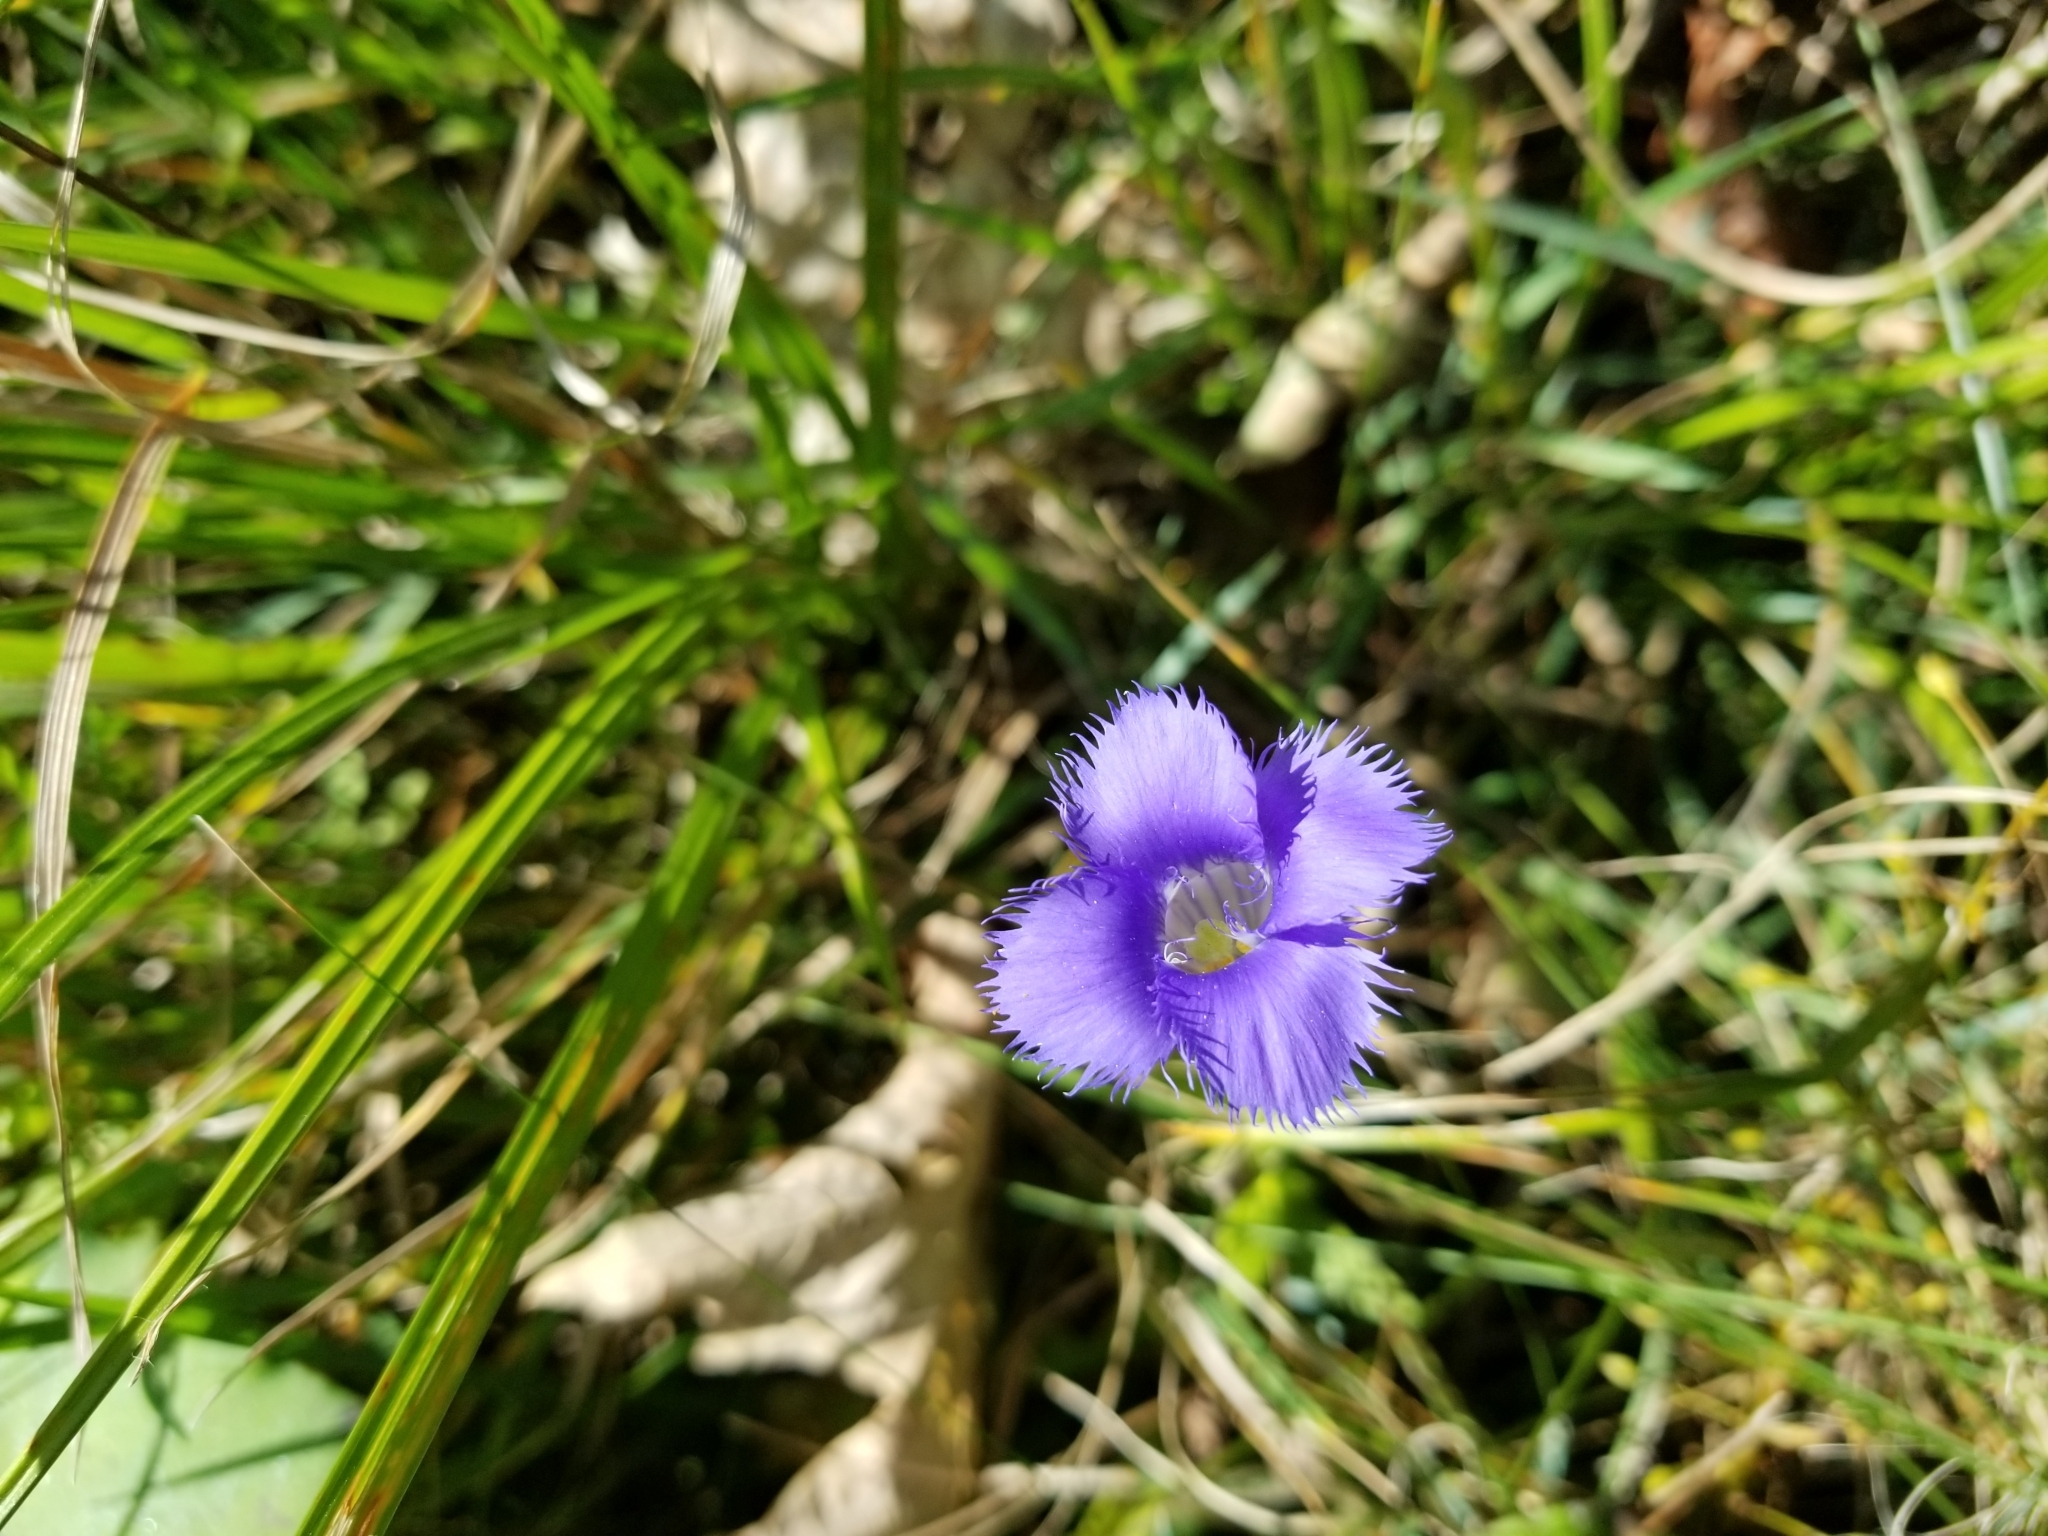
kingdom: Plantae
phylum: Tracheophyta
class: Magnoliopsida
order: Gentianales
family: Gentianaceae
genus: Gentianopsis
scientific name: Gentianopsis crinita
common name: Fringed-gentian
